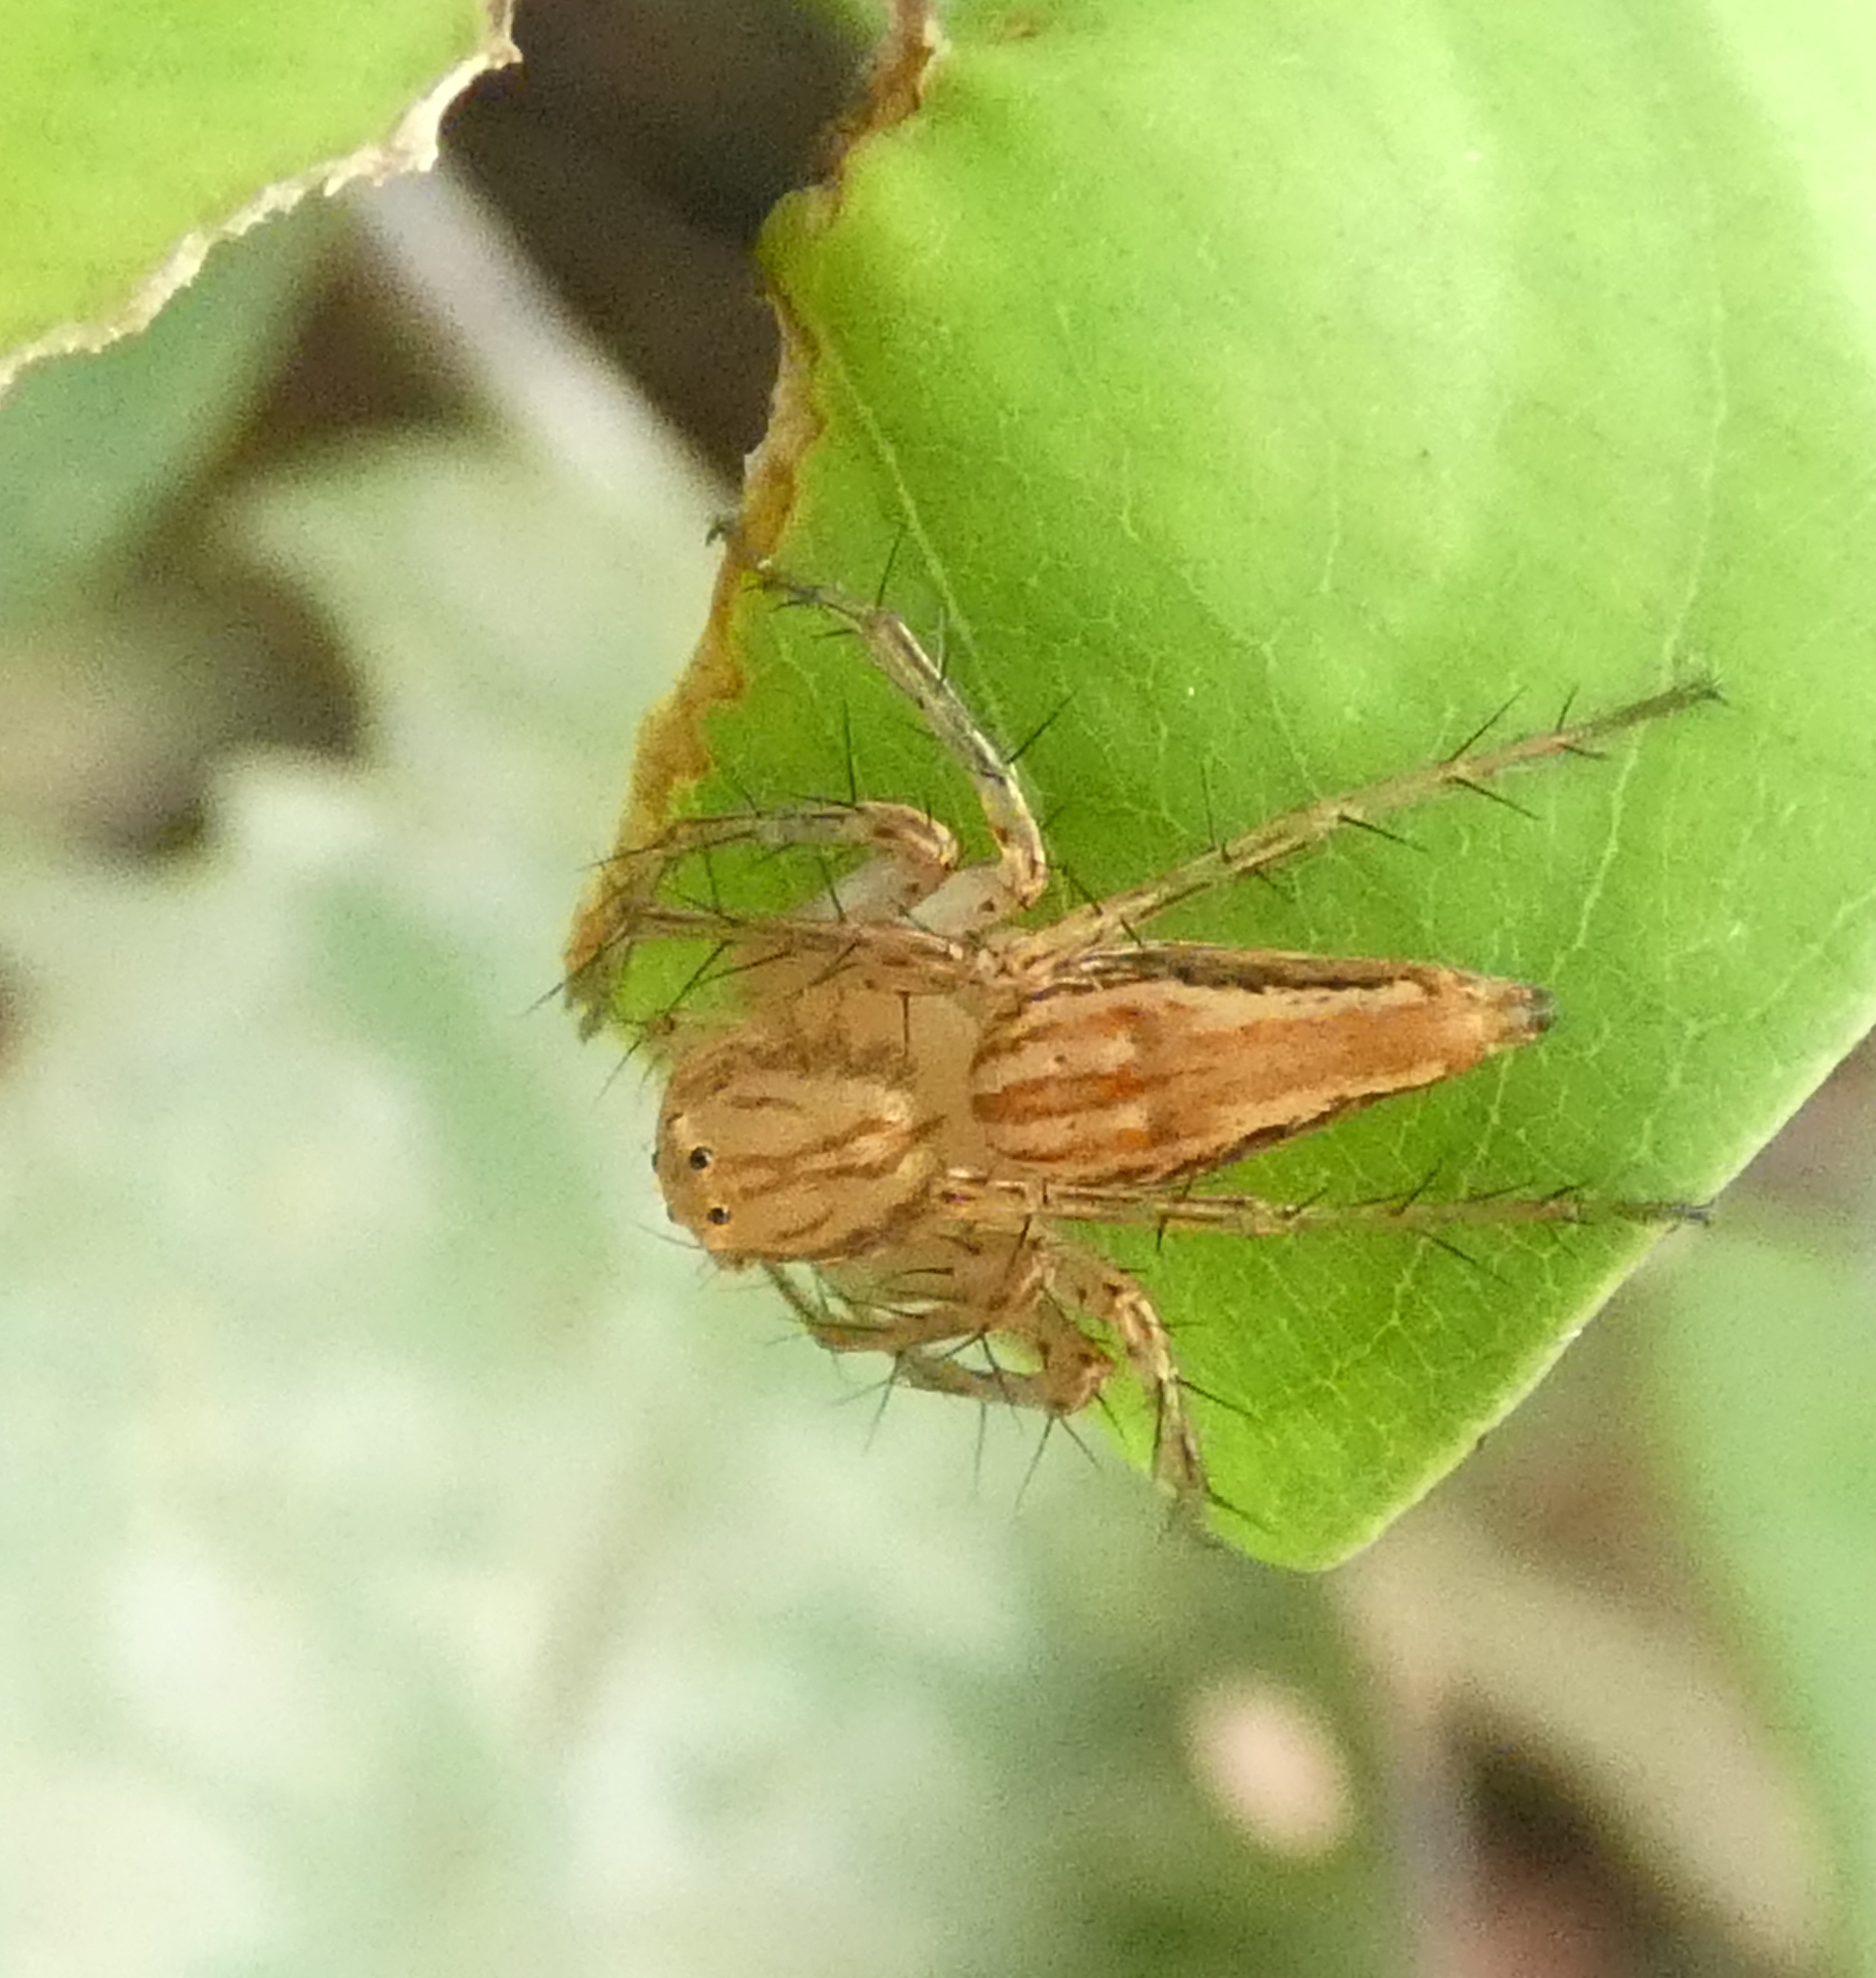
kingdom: Animalia
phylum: Arthropoda
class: Arachnida
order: Araneae
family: Oxyopidae
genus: Oxyopes
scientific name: Oxyopes salticus
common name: Lynx spiders
